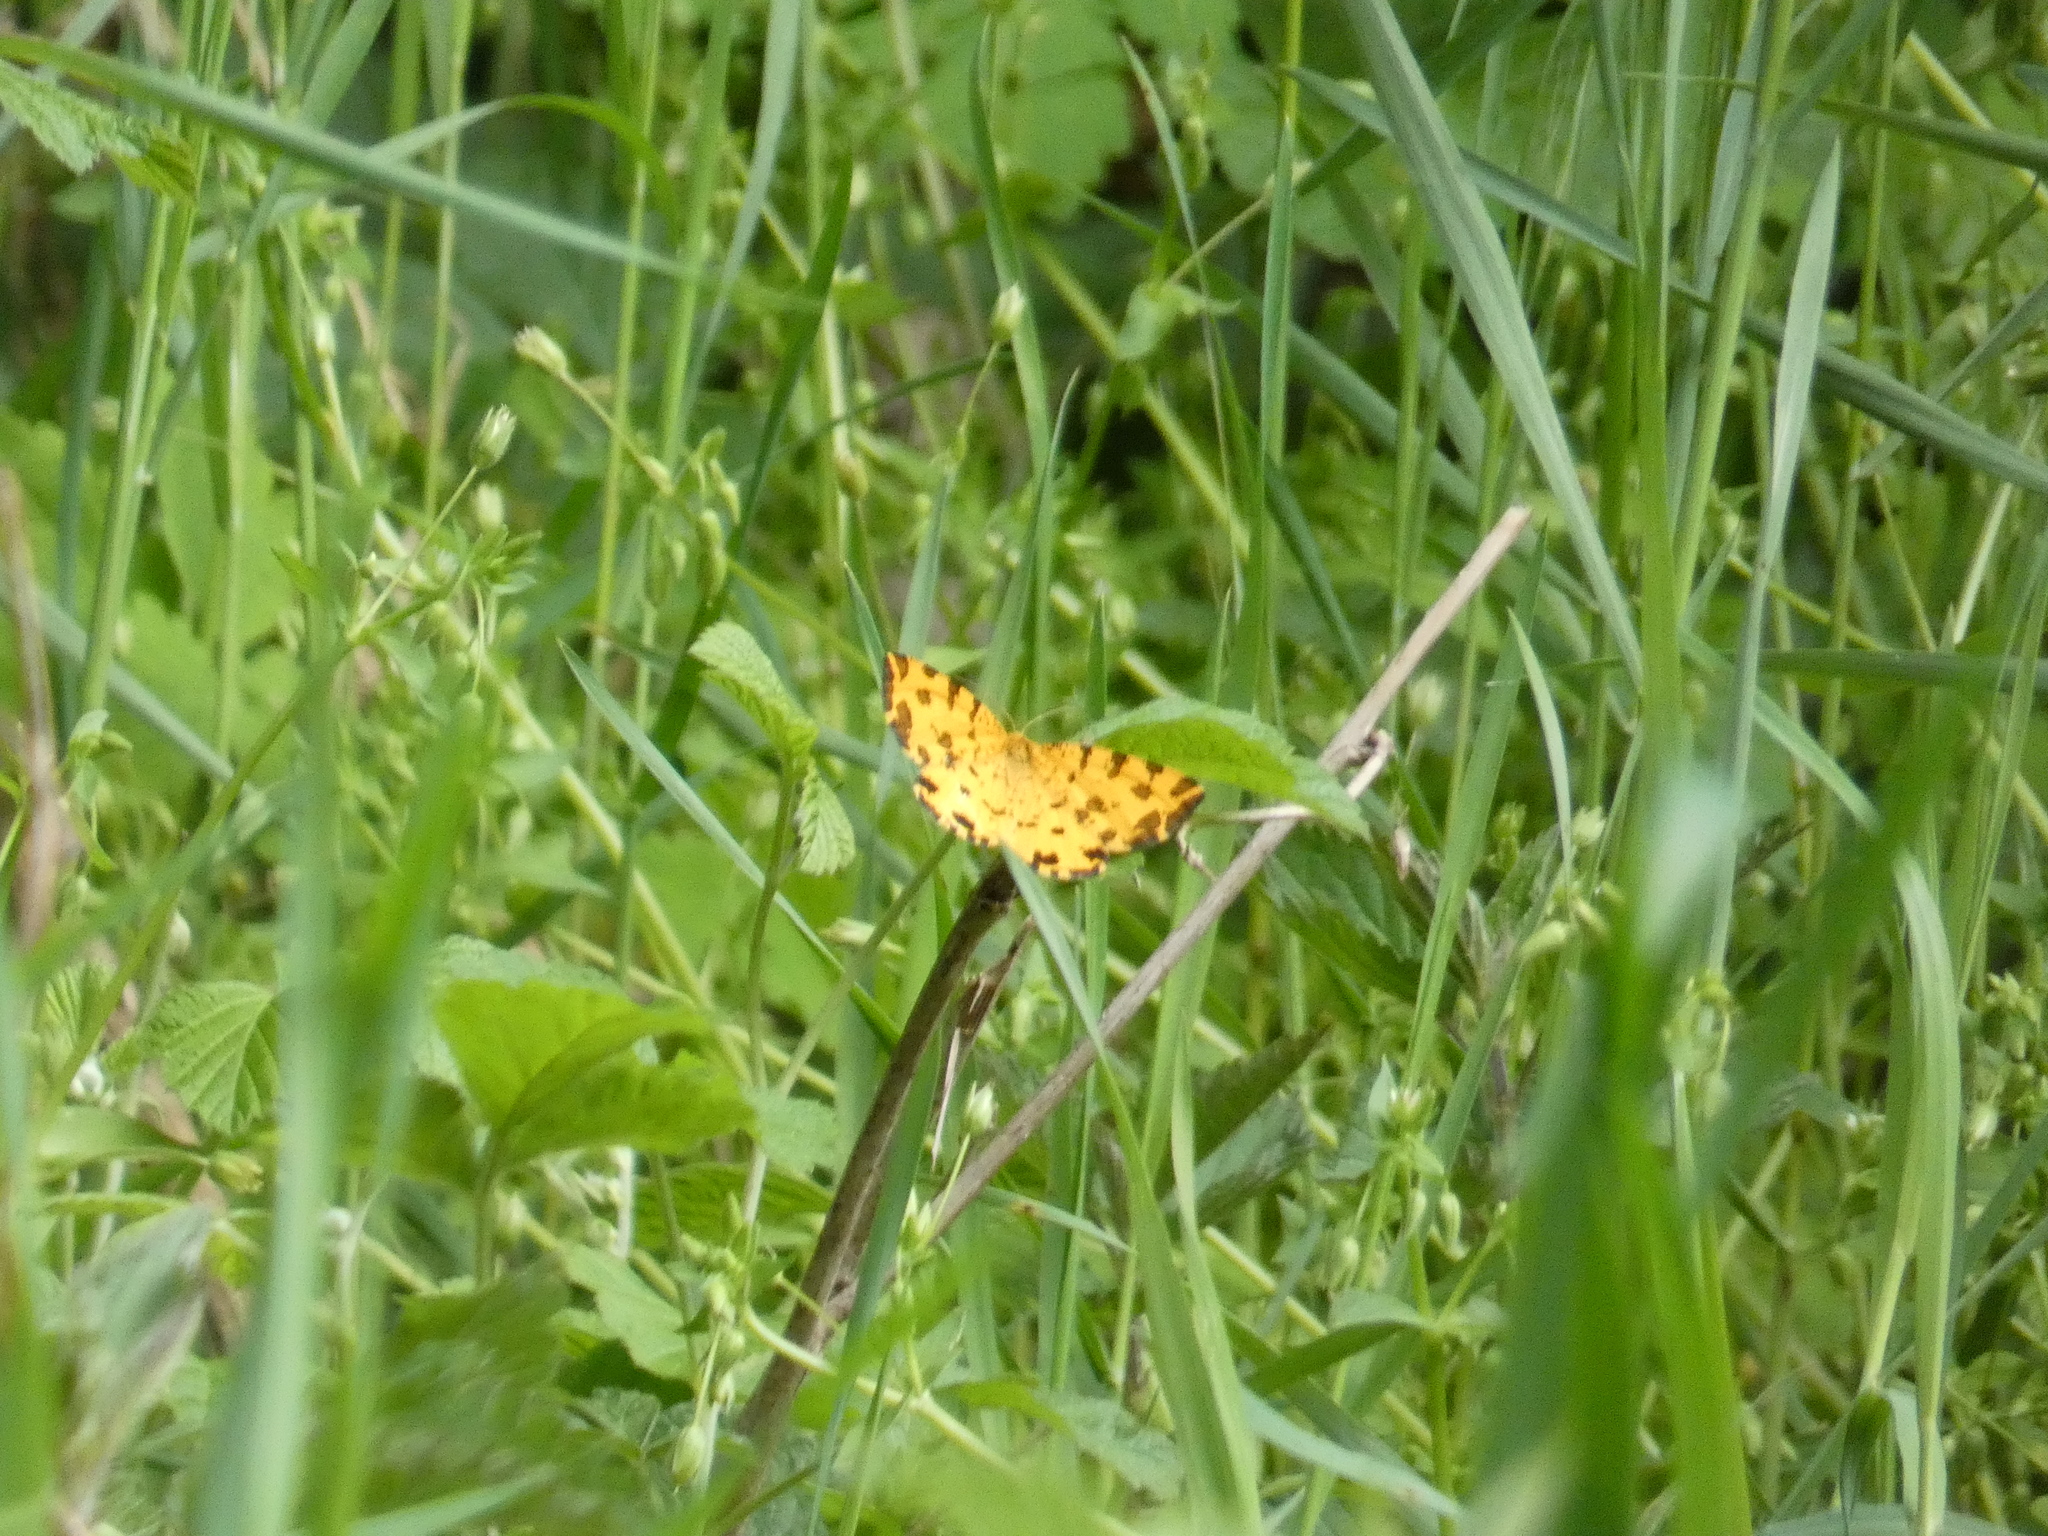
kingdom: Animalia
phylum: Arthropoda
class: Insecta
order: Lepidoptera
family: Geometridae
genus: Pseudopanthera
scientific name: Pseudopanthera macularia
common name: Speckled yellow
